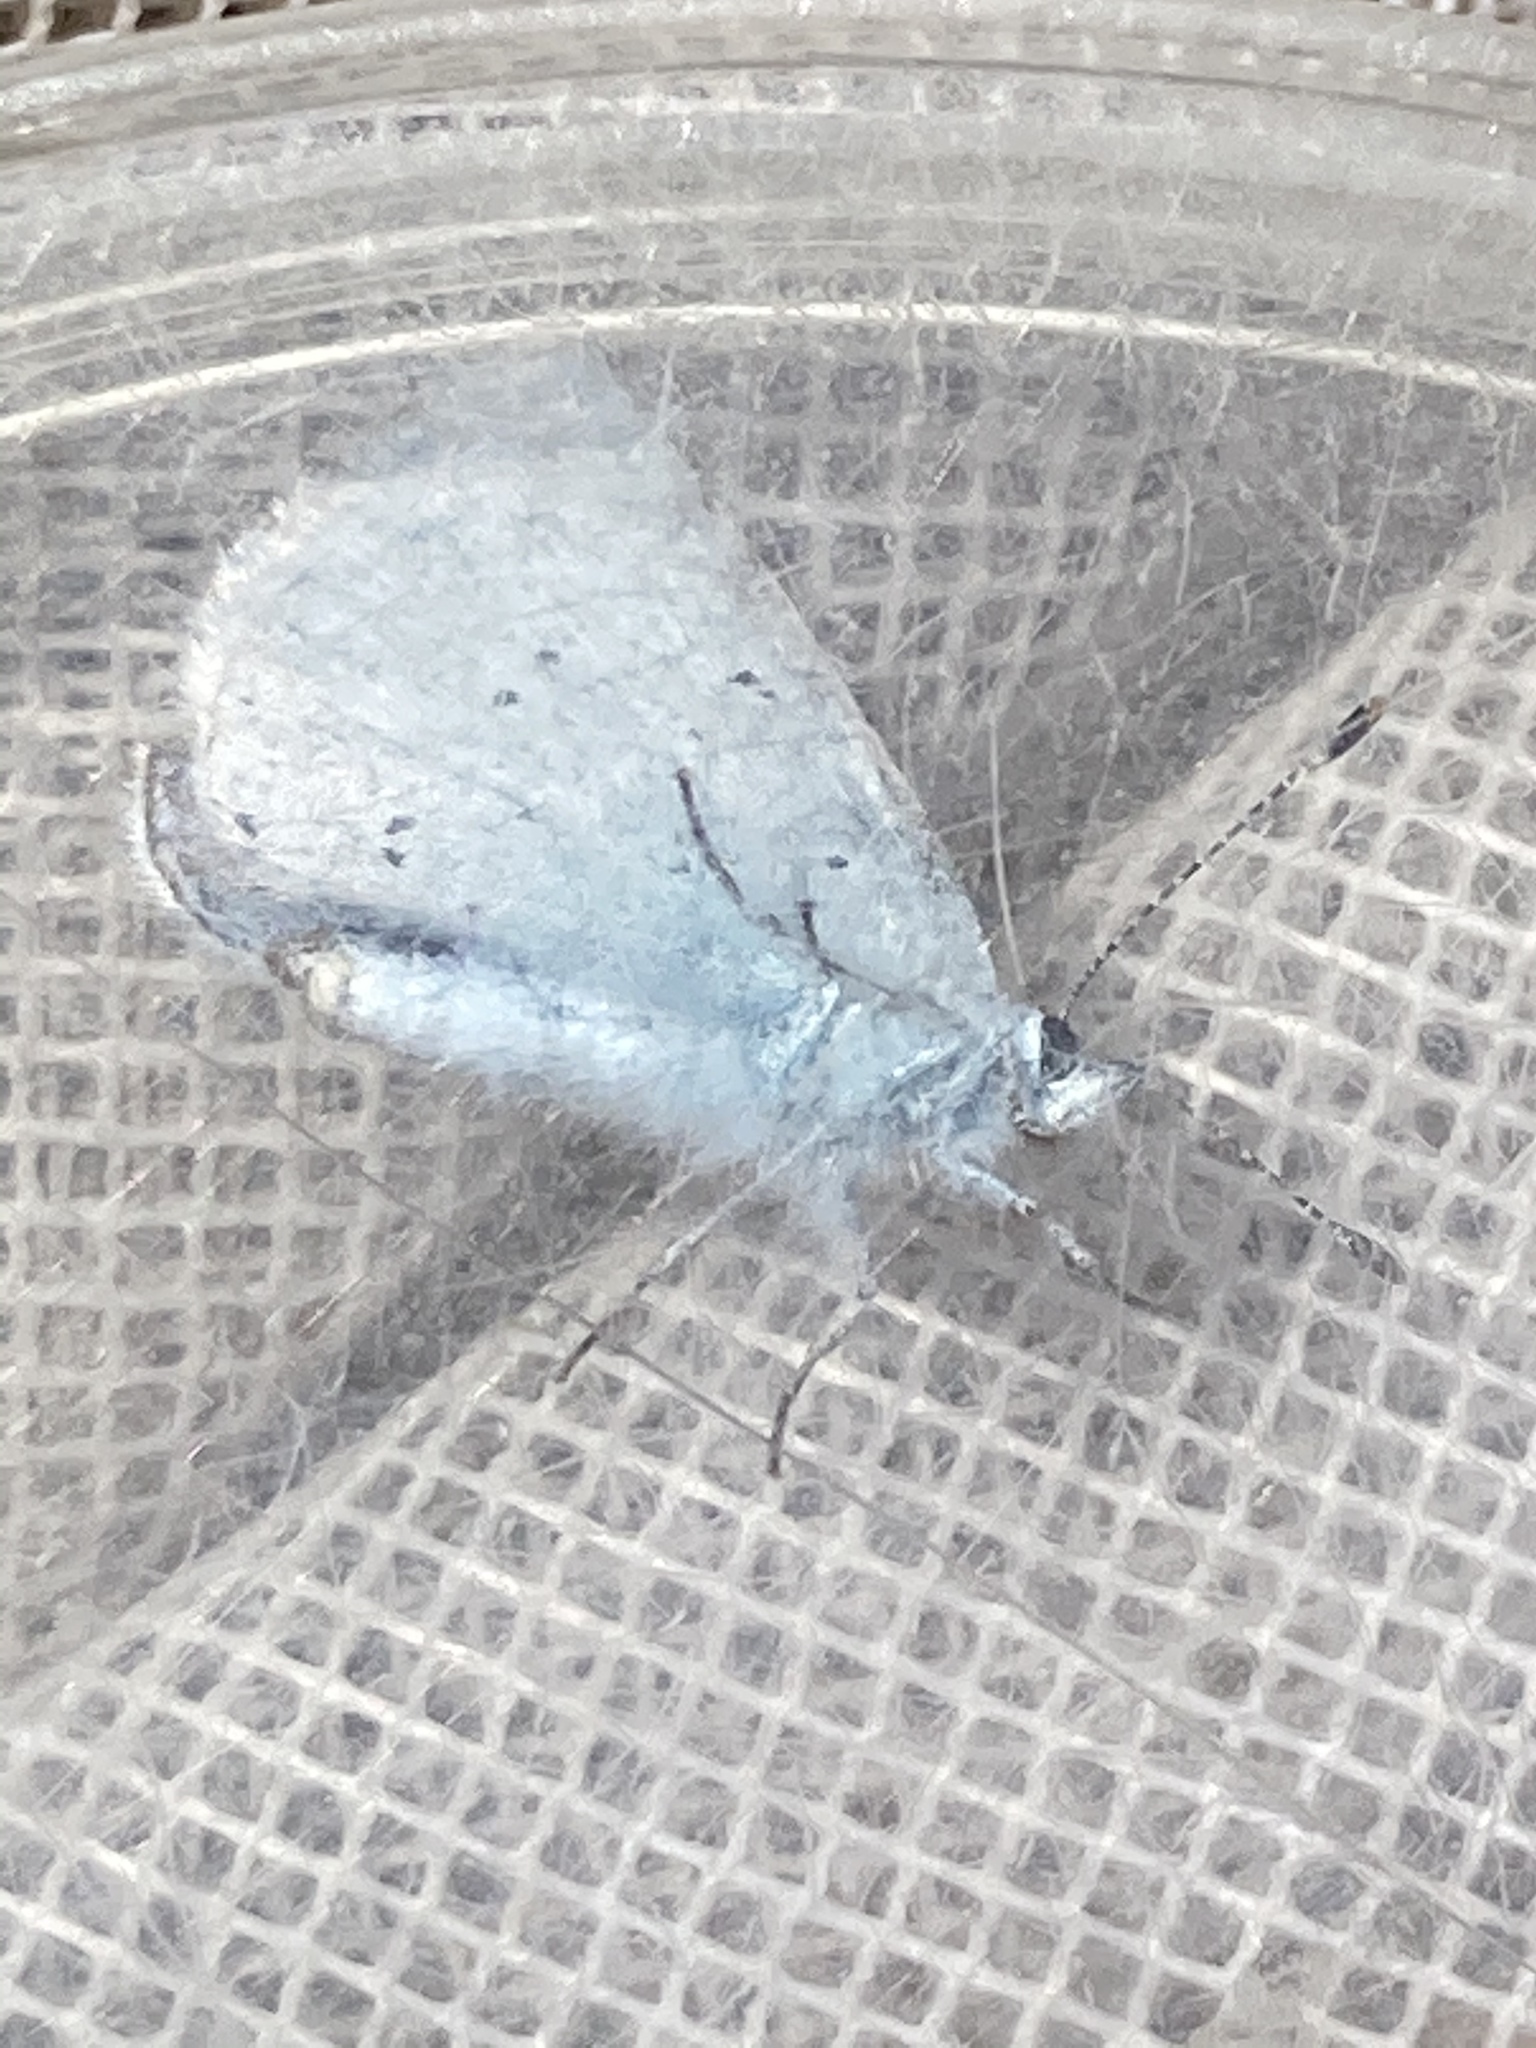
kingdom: Animalia
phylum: Arthropoda
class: Insecta
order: Lepidoptera
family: Lycaenidae
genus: Celastrina
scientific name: Celastrina argiolus
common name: Holly blue
